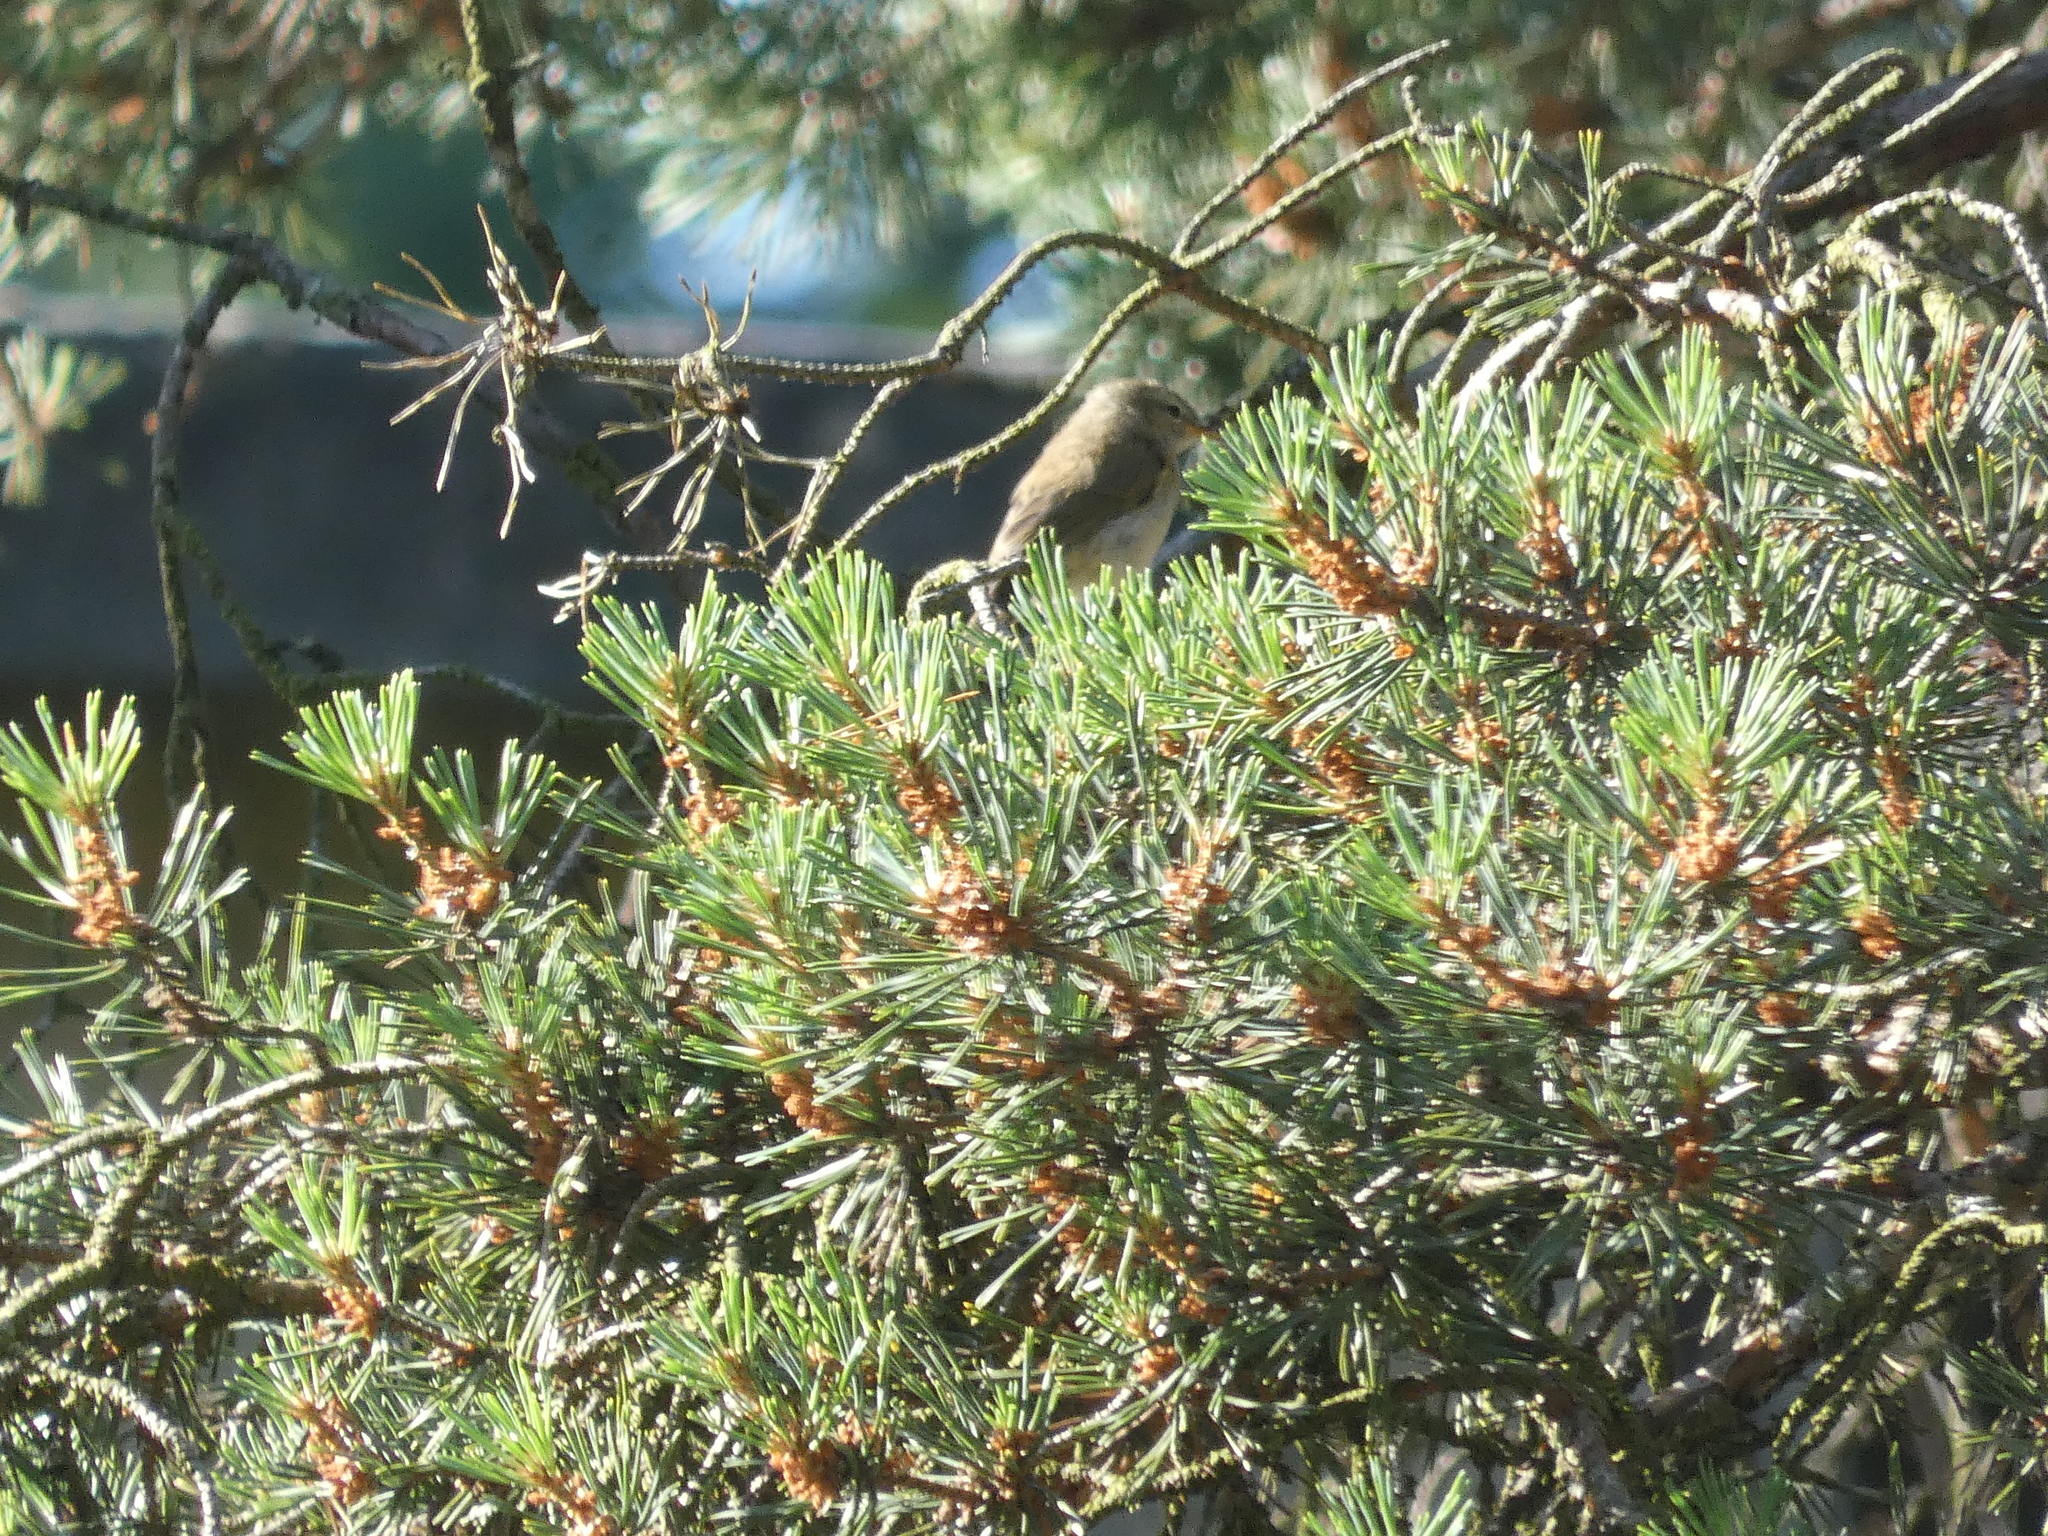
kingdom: Animalia
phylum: Chordata
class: Aves
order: Passeriformes
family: Phylloscopidae
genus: Phylloscopus
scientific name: Phylloscopus collybita
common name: Common chiffchaff
